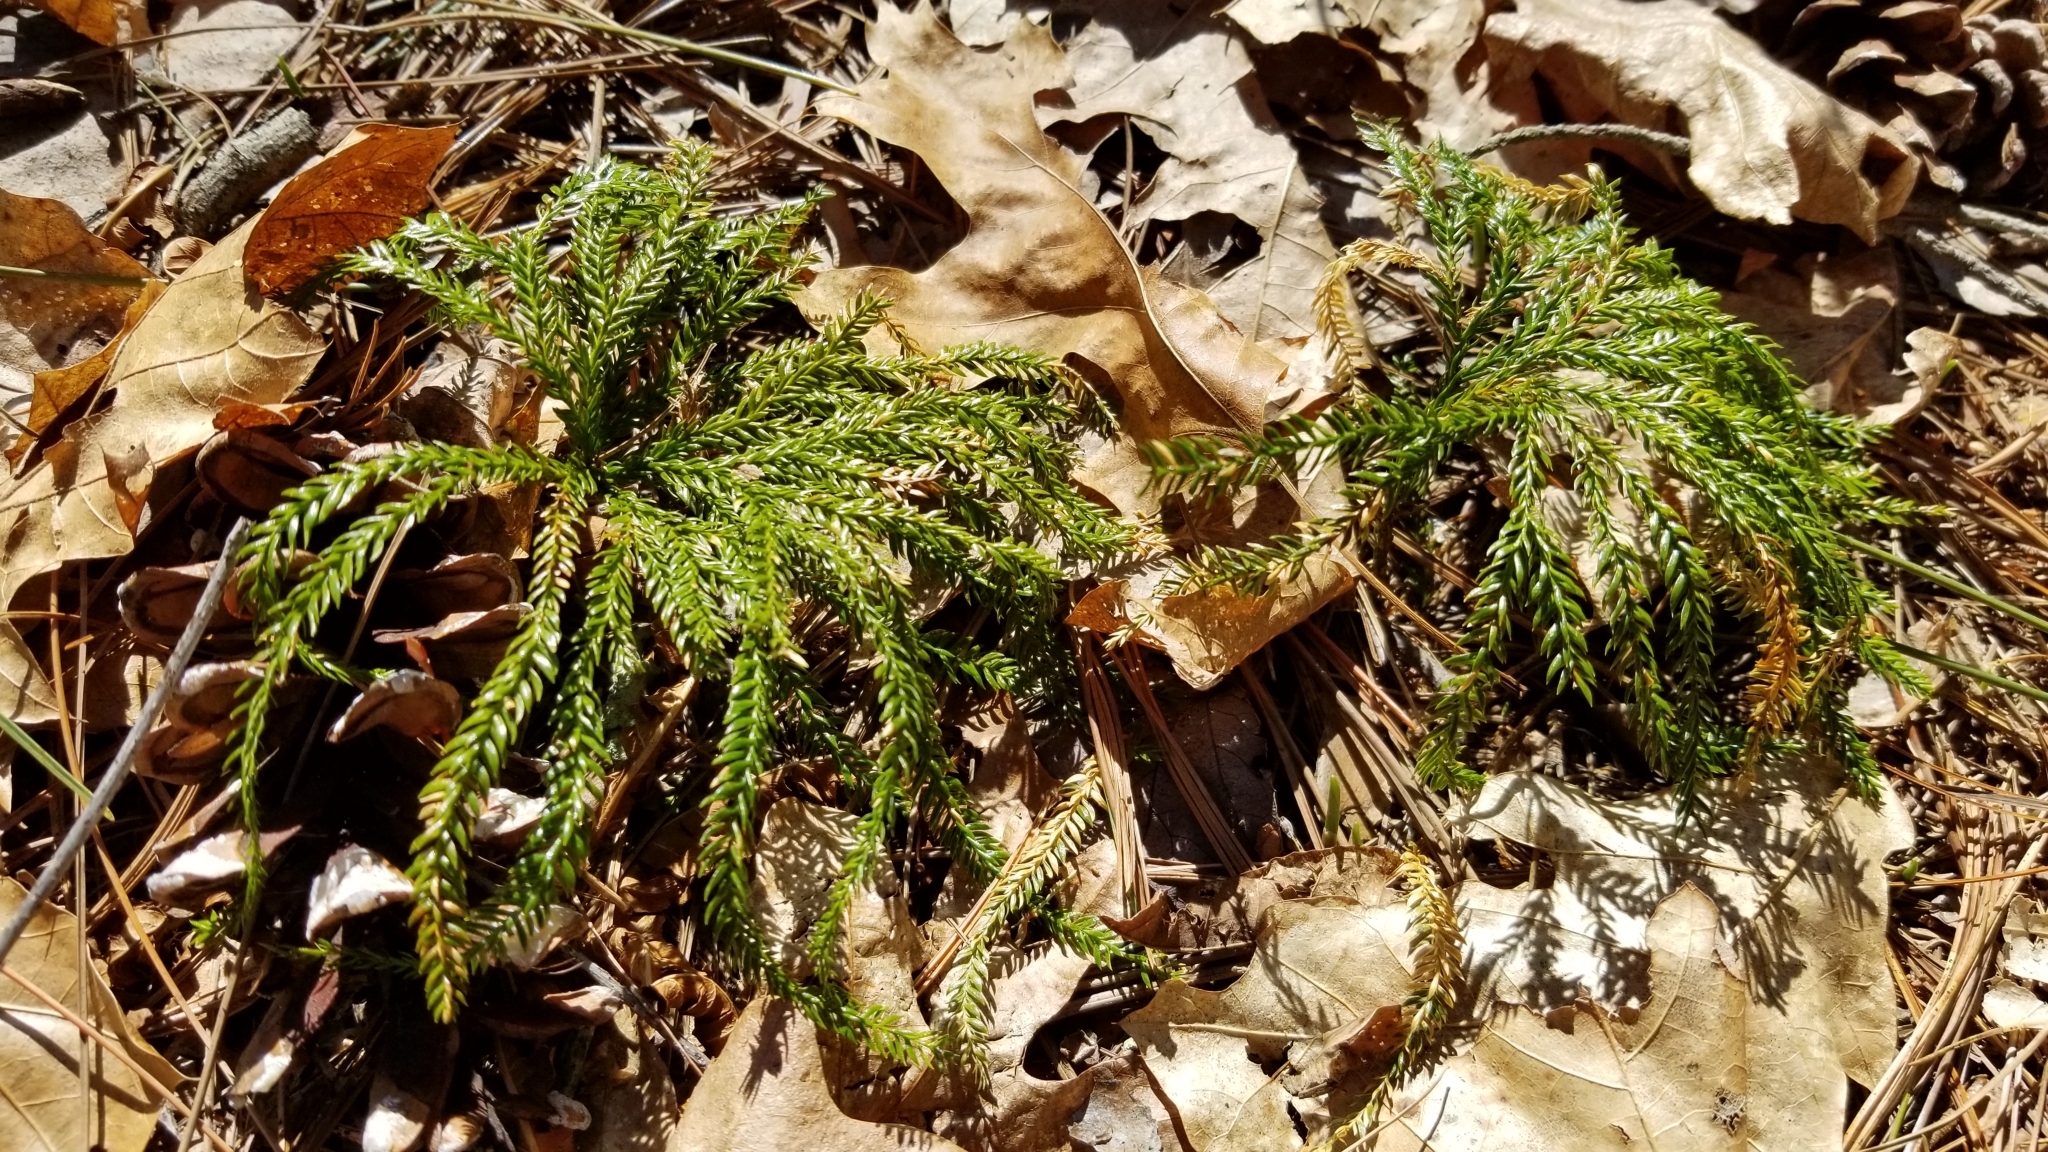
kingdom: Plantae
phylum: Tracheophyta
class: Lycopodiopsida
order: Lycopodiales
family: Lycopodiaceae
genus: Dendrolycopodium
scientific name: Dendrolycopodium obscurum
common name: Common ground-pine
